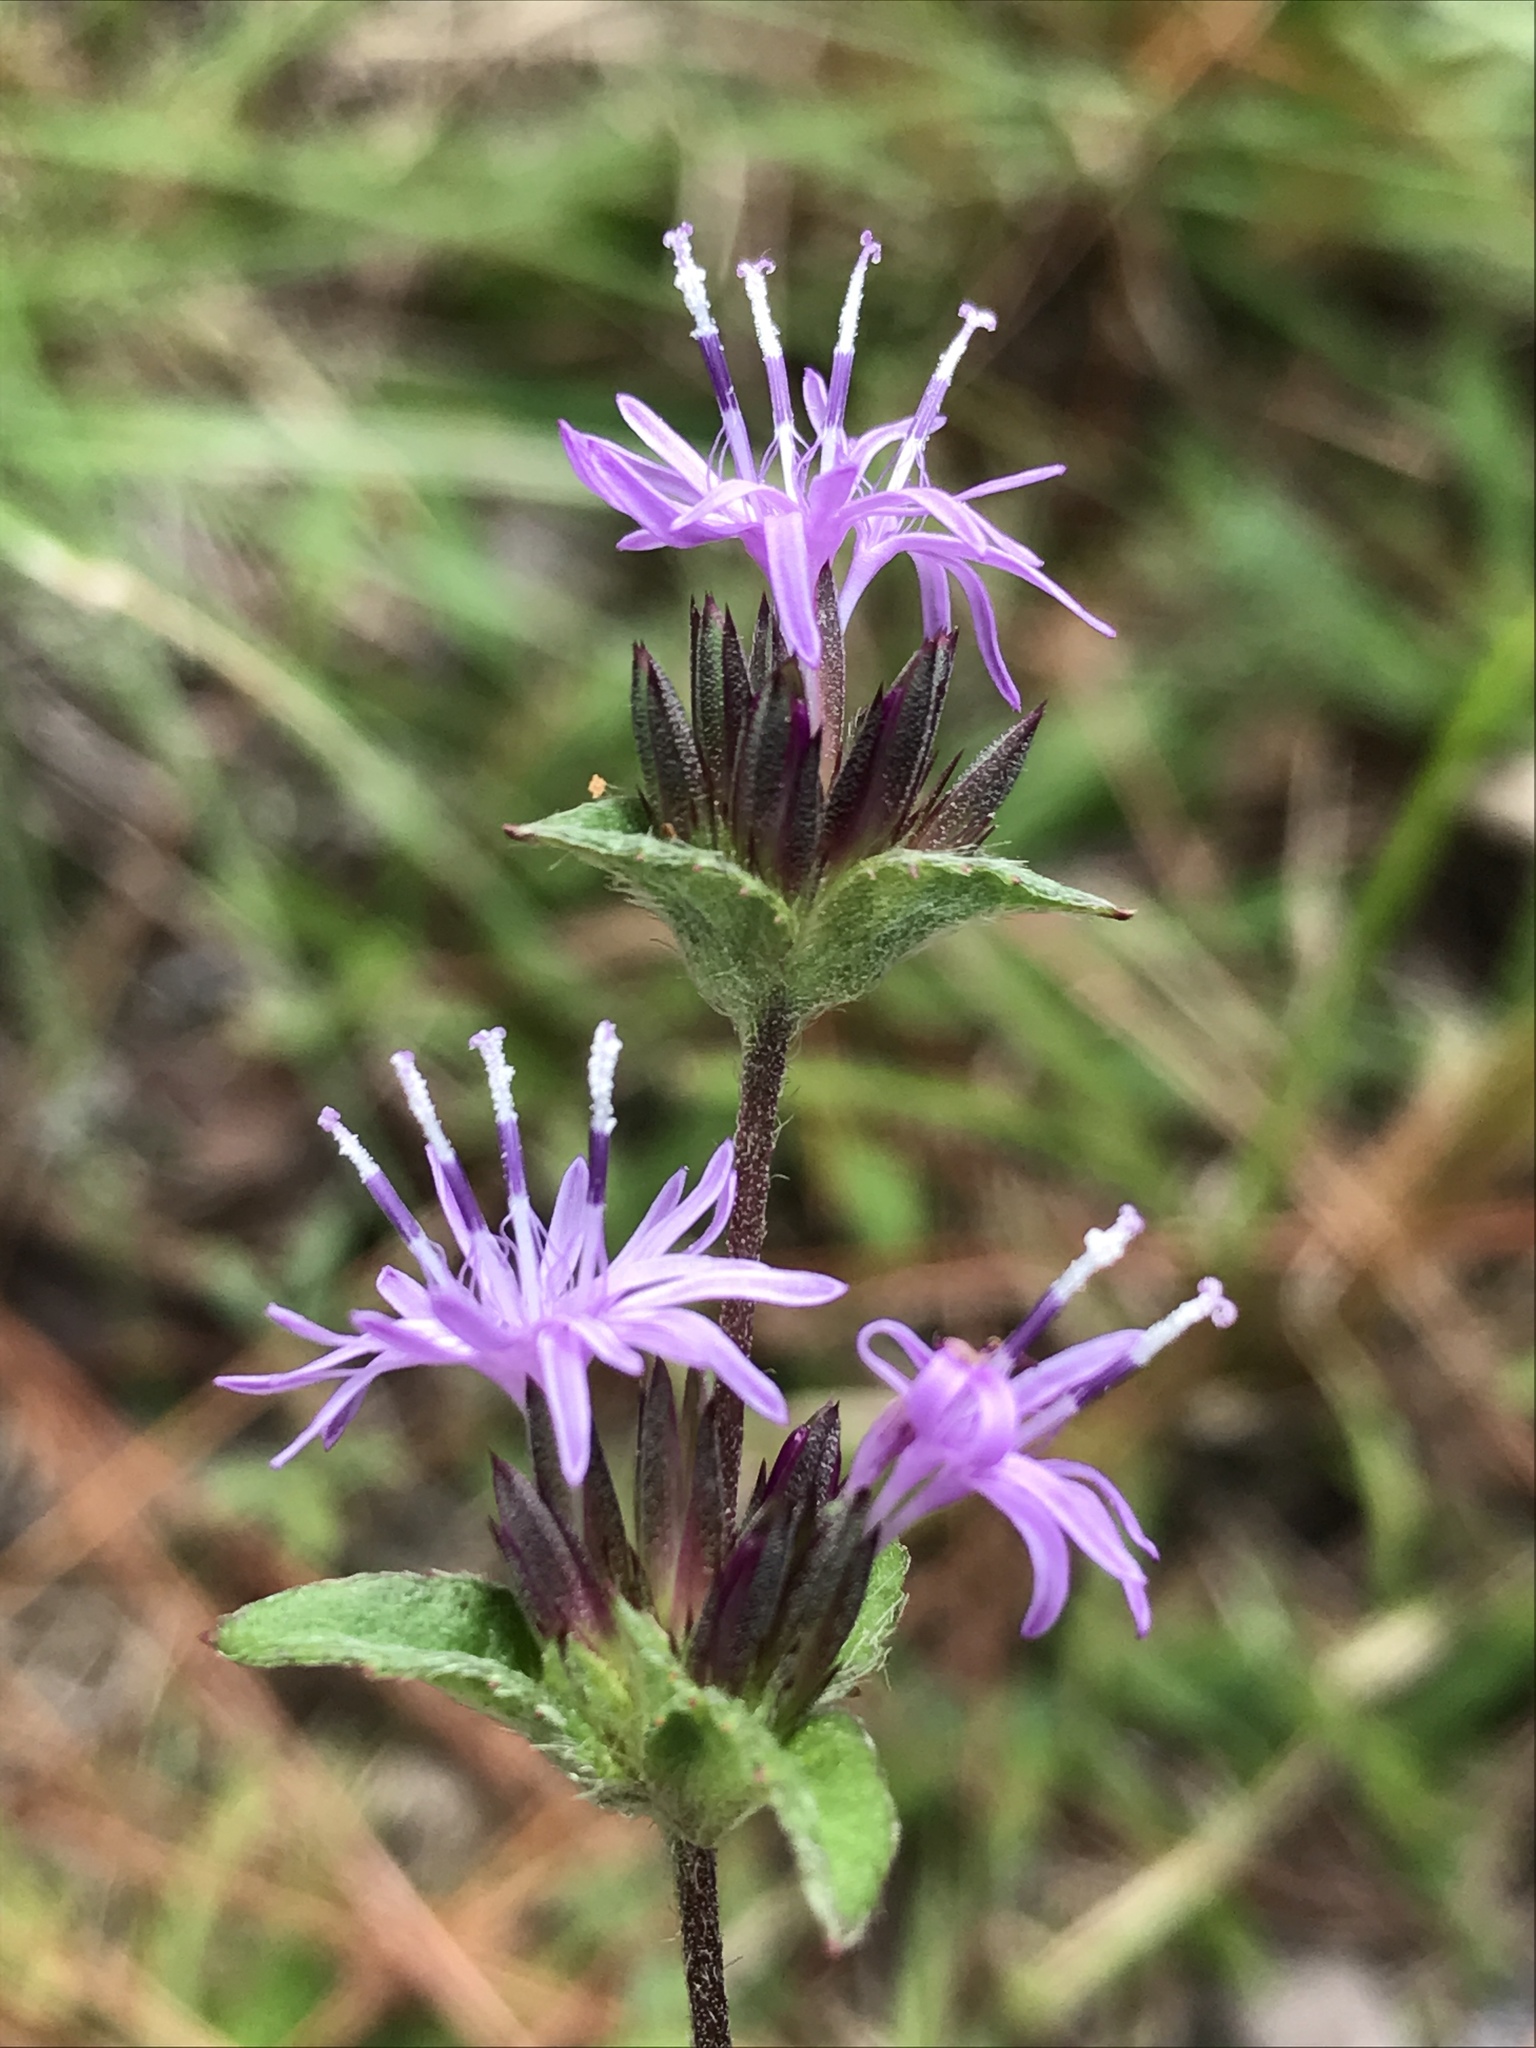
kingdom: Plantae
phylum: Tracheophyta
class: Magnoliopsida
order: Asterales
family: Asteraceae
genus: Elephantopus
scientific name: Elephantopus nudatus
